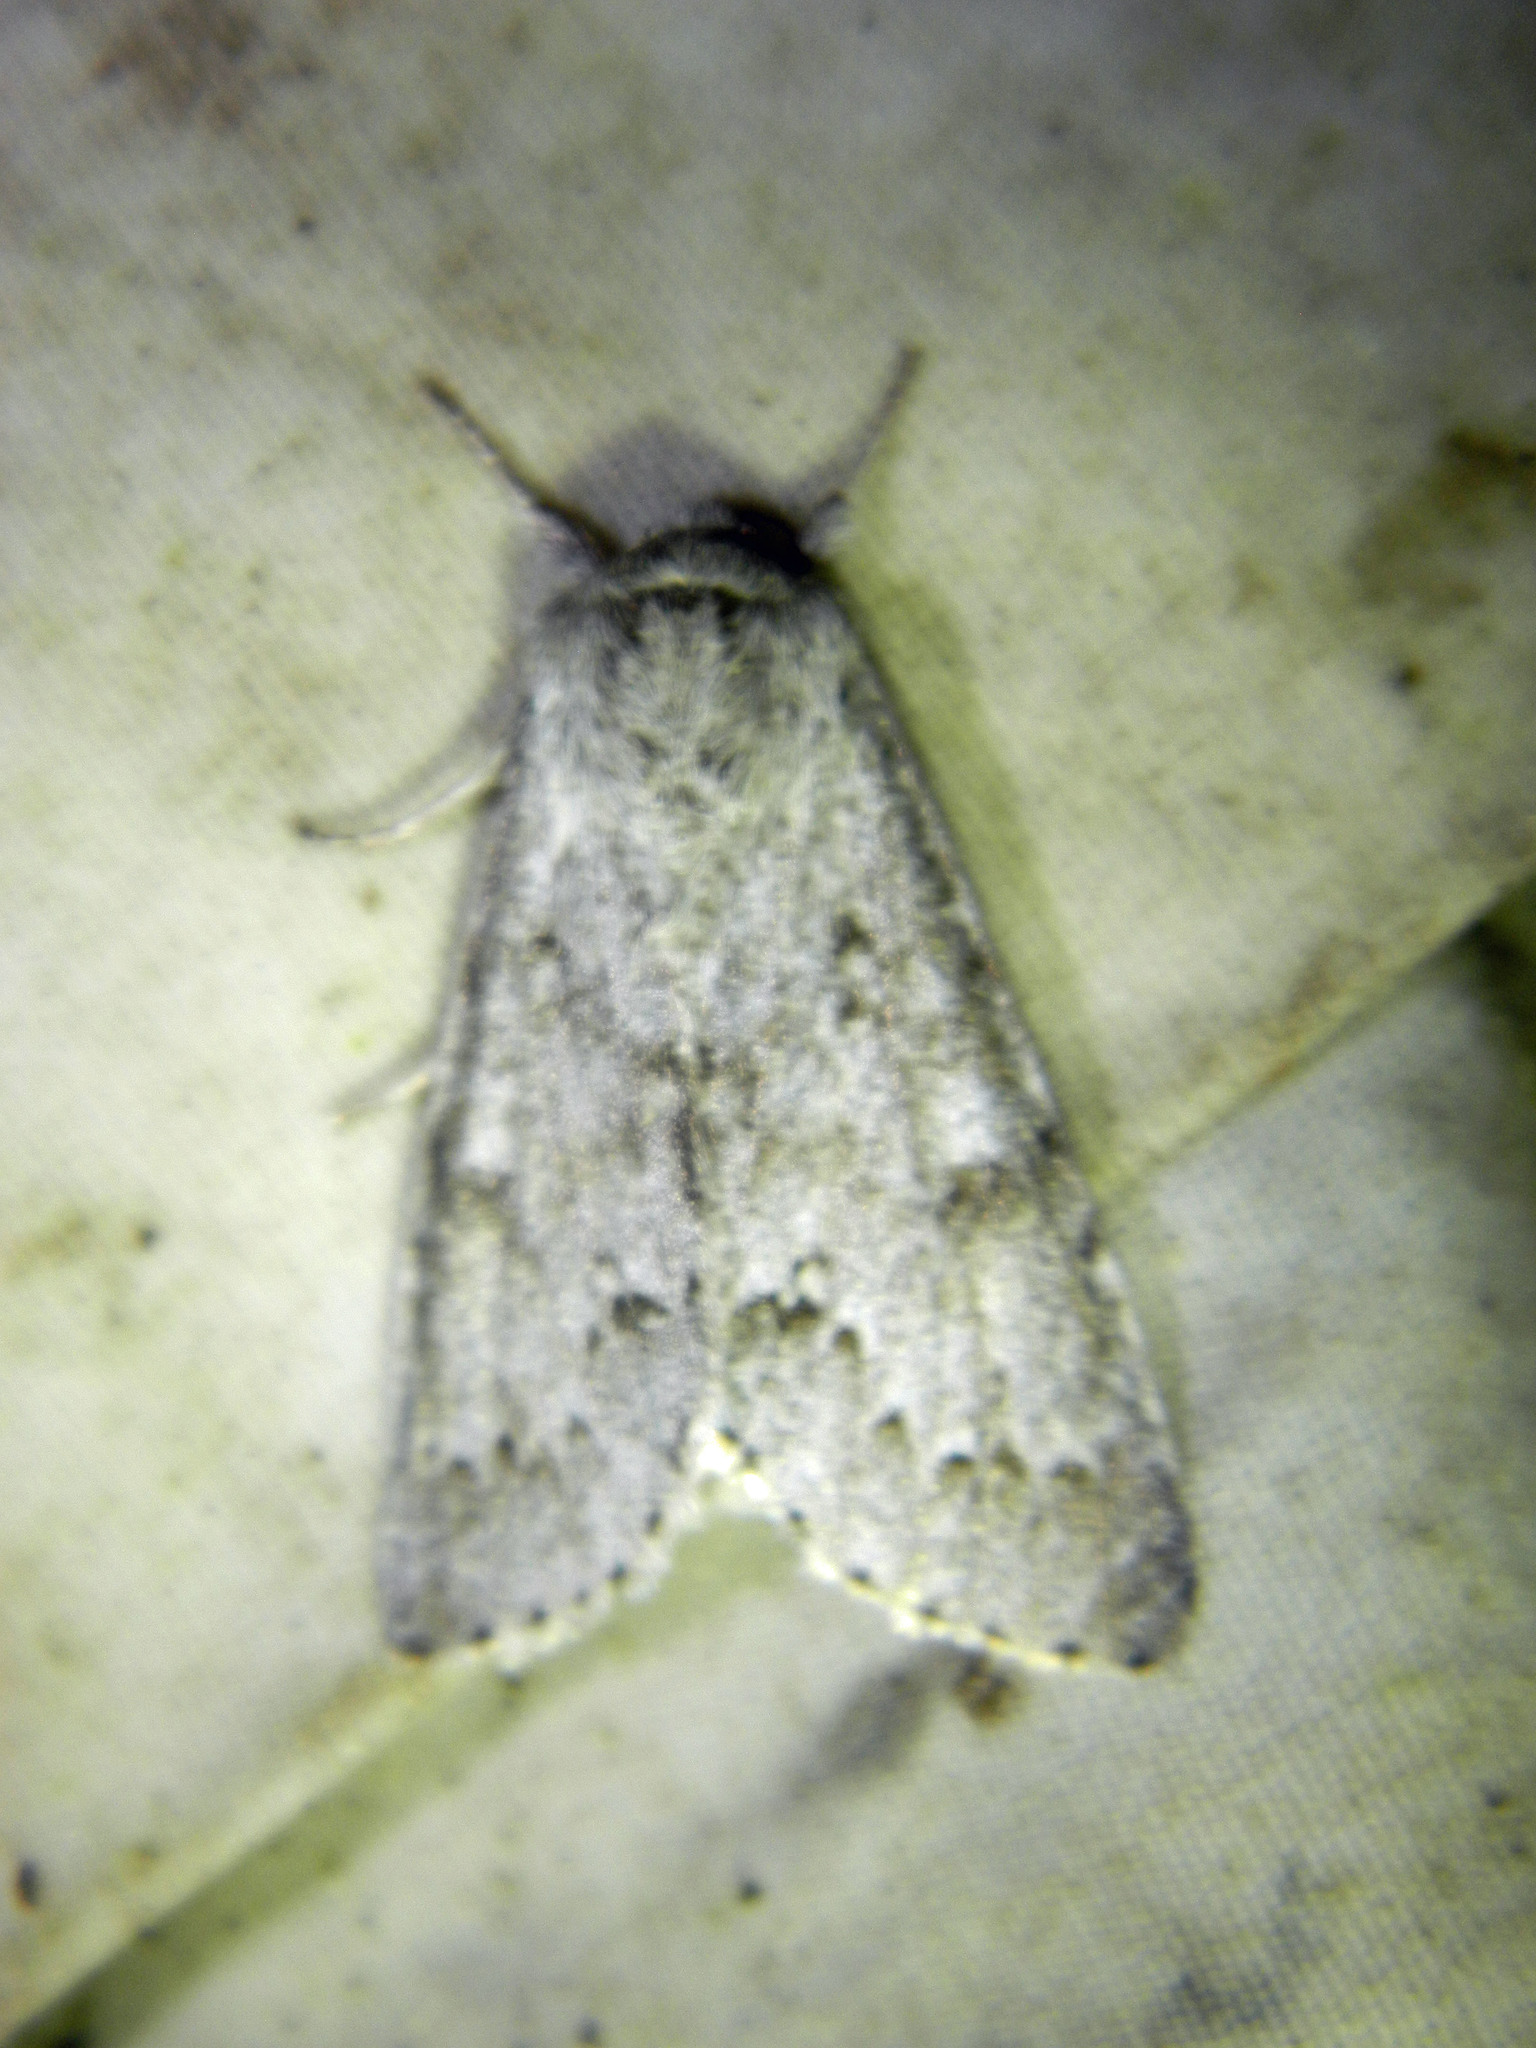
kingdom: Animalia
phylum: Arthropoda
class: Insecta
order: Lepidoptera
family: Noctuidae
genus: Acronicta
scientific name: Acronicta insita
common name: Large gray dagger
